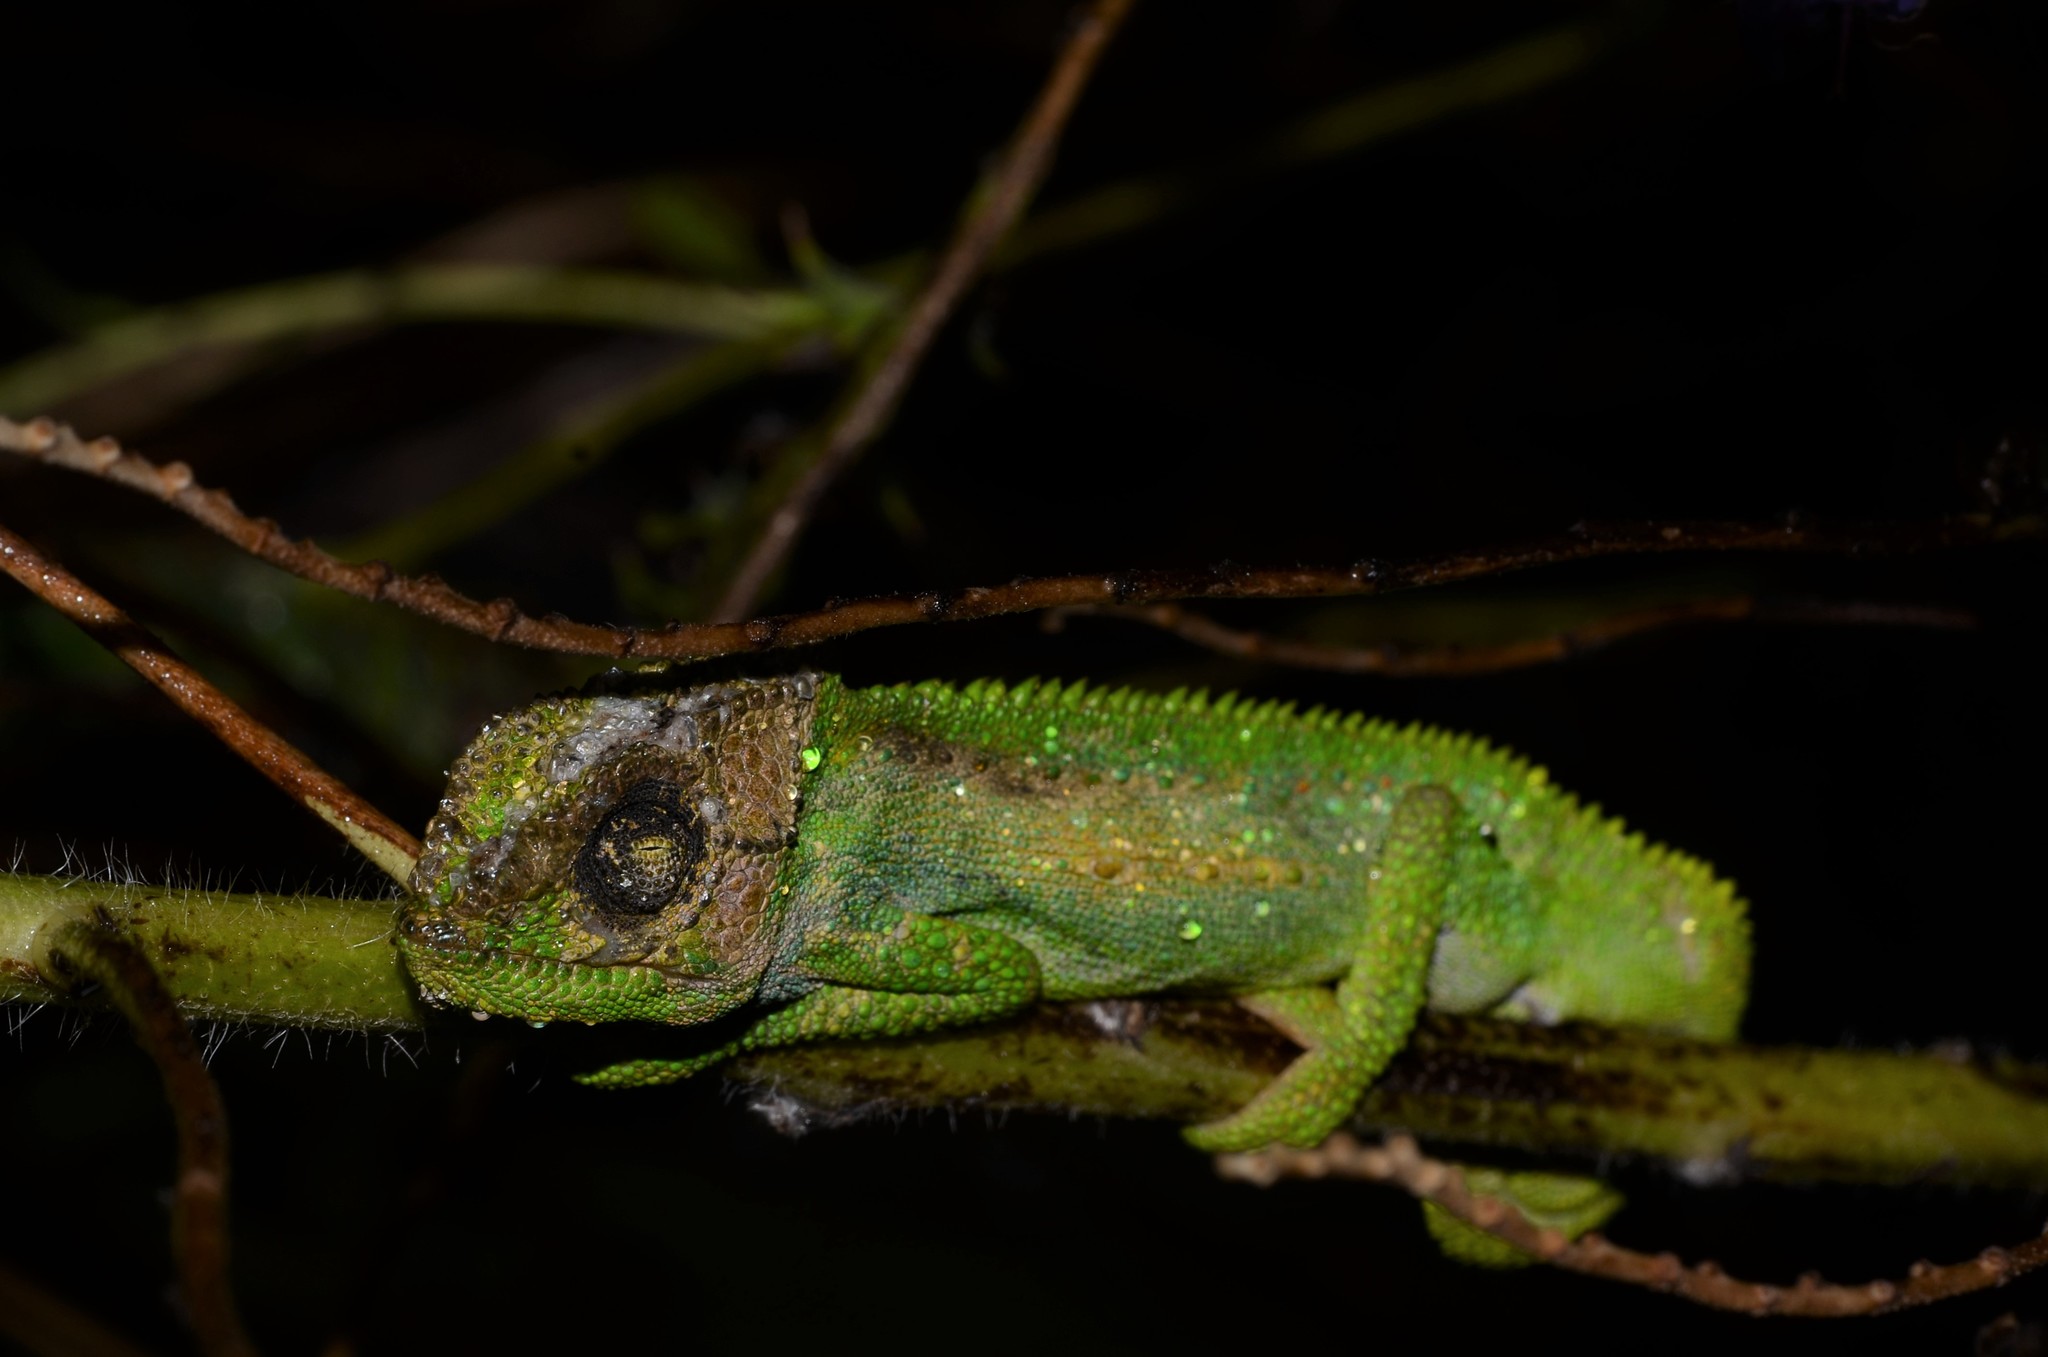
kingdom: Animalia
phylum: Chordata
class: Squamata
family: Chamaeleonidae
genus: Bradypodion
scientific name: Bradypodion pumilum
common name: Cape dwarf chameleon
